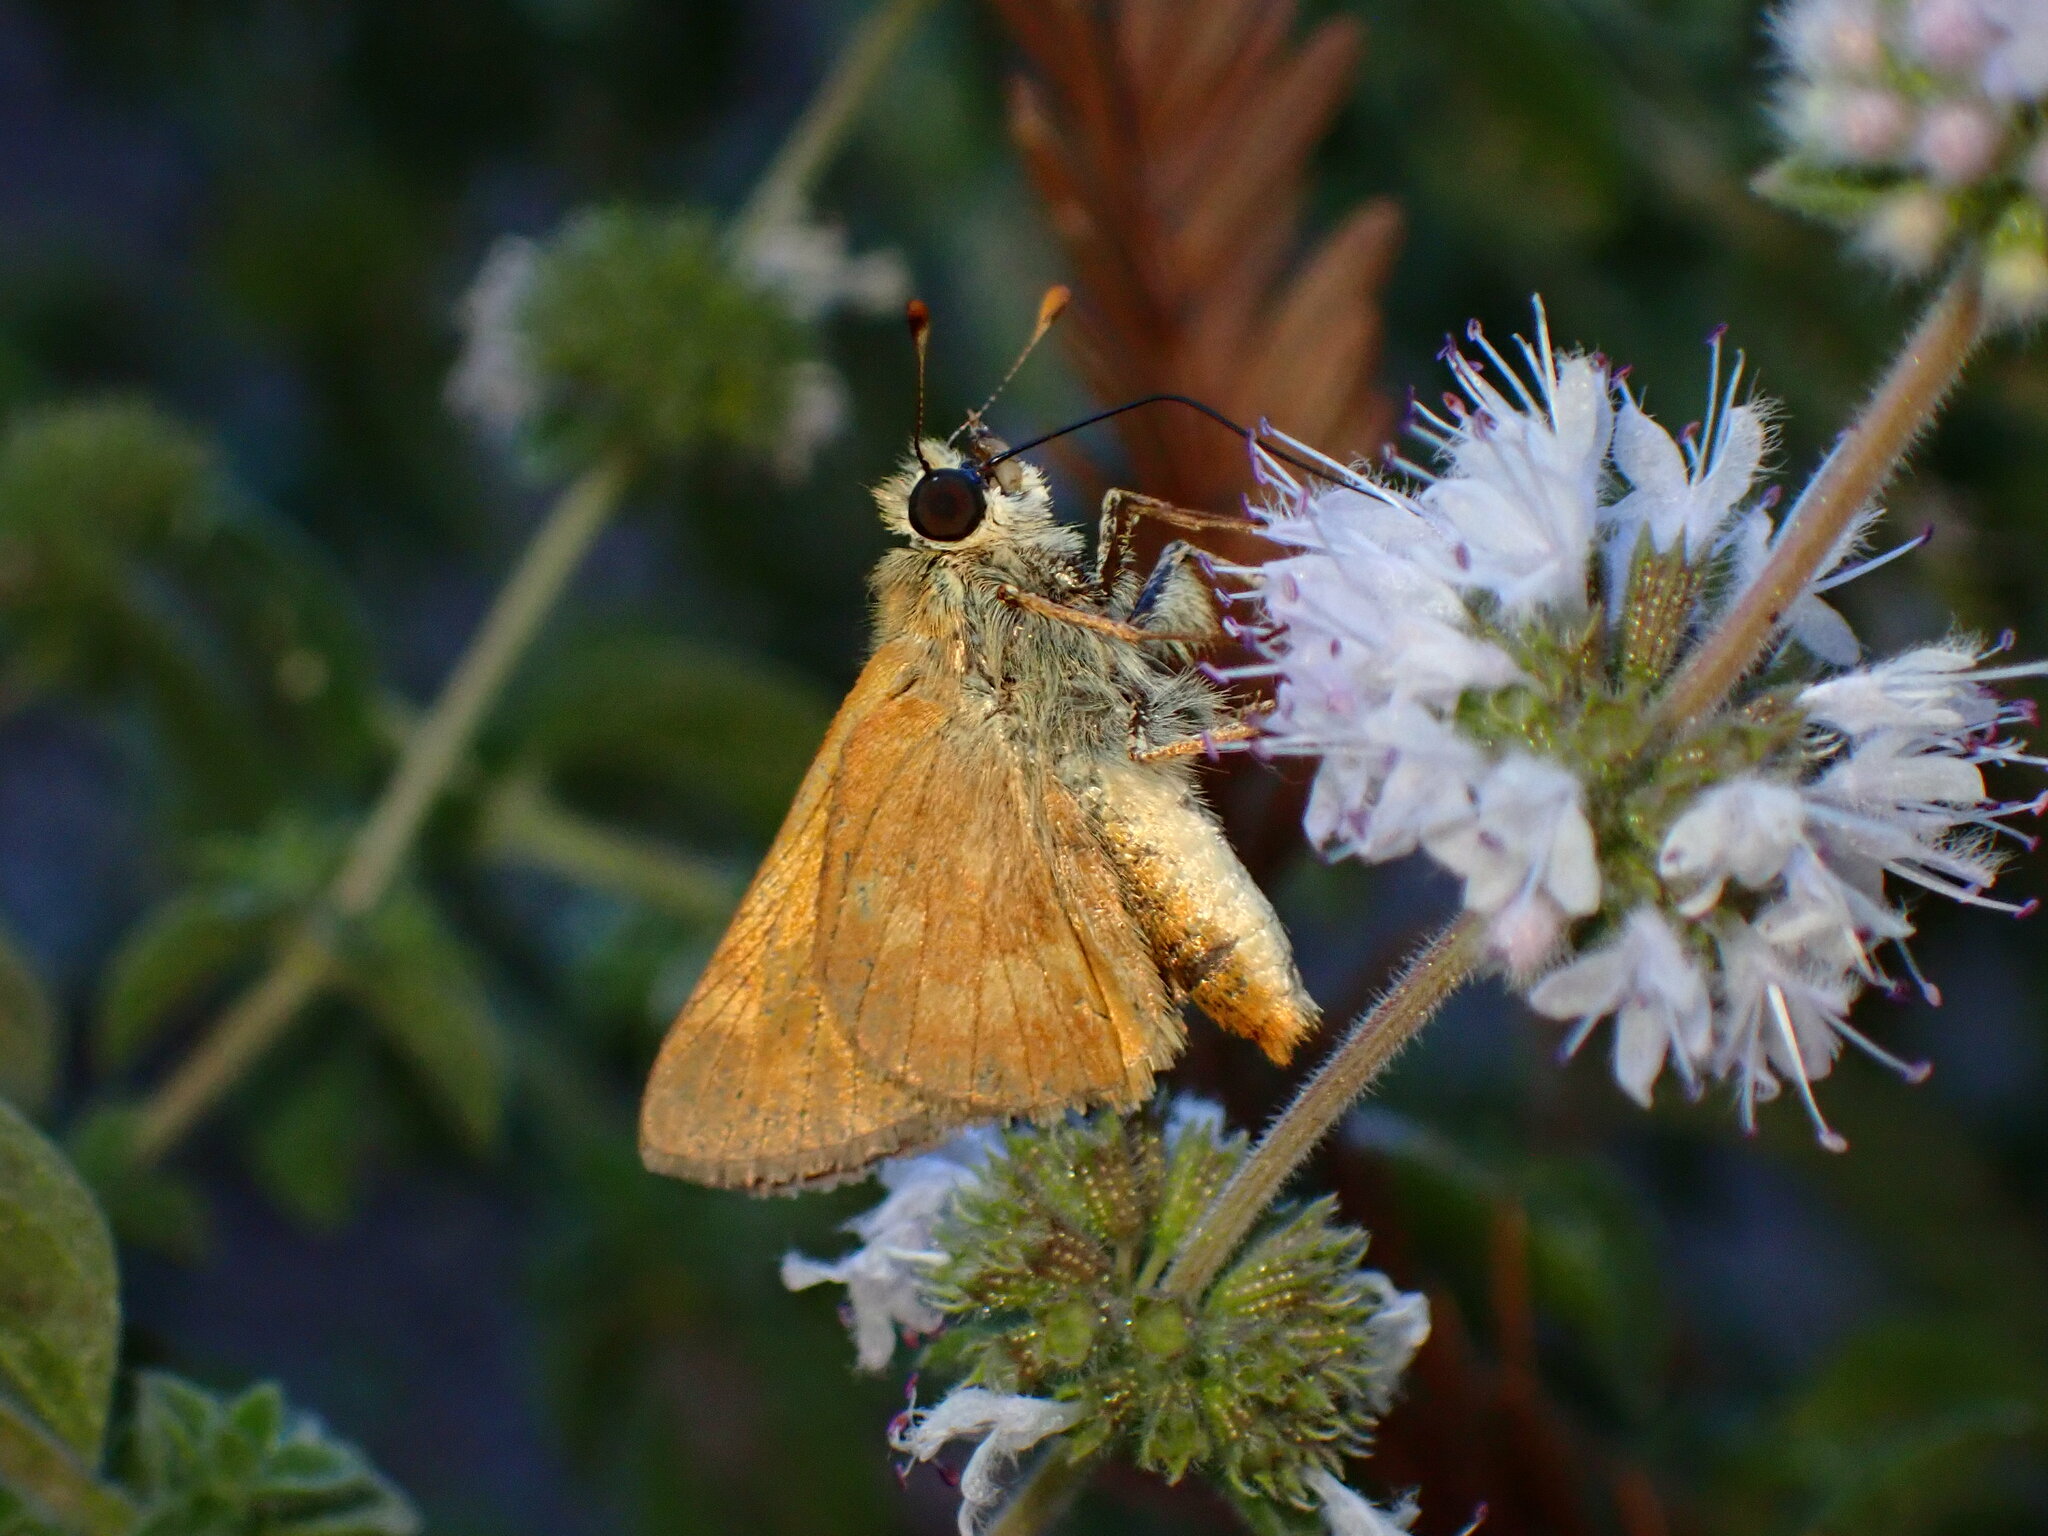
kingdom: Animalia
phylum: Arthropoda
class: Insecta
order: Lepidoptera
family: Hesperiidae
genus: Ochlodes
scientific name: Ochlodes sylvanoides
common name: Woodland skipper
